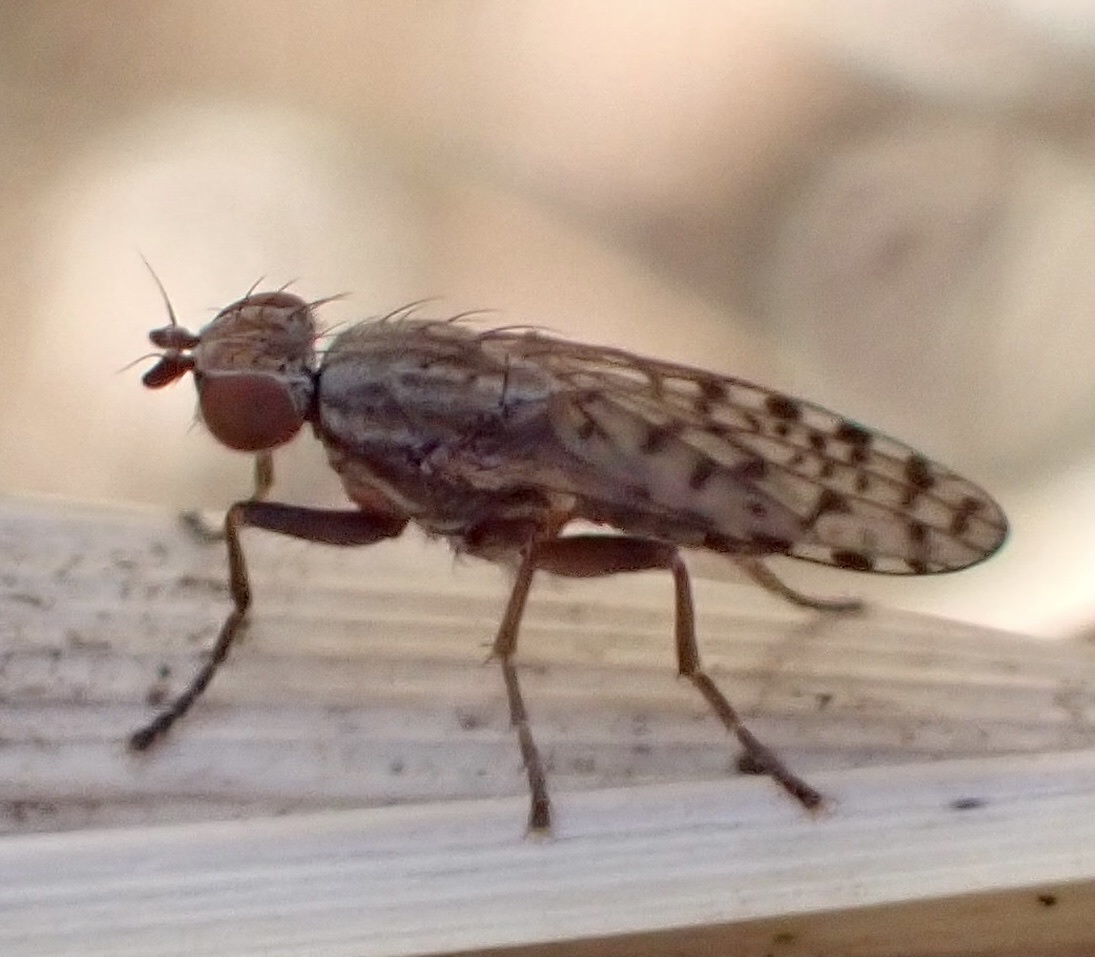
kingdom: Animalia
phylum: Arthropoda
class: Insecta
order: Diptera
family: Sciomyzidae
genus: Pherbellia
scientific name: Pherbellia schoenherri
